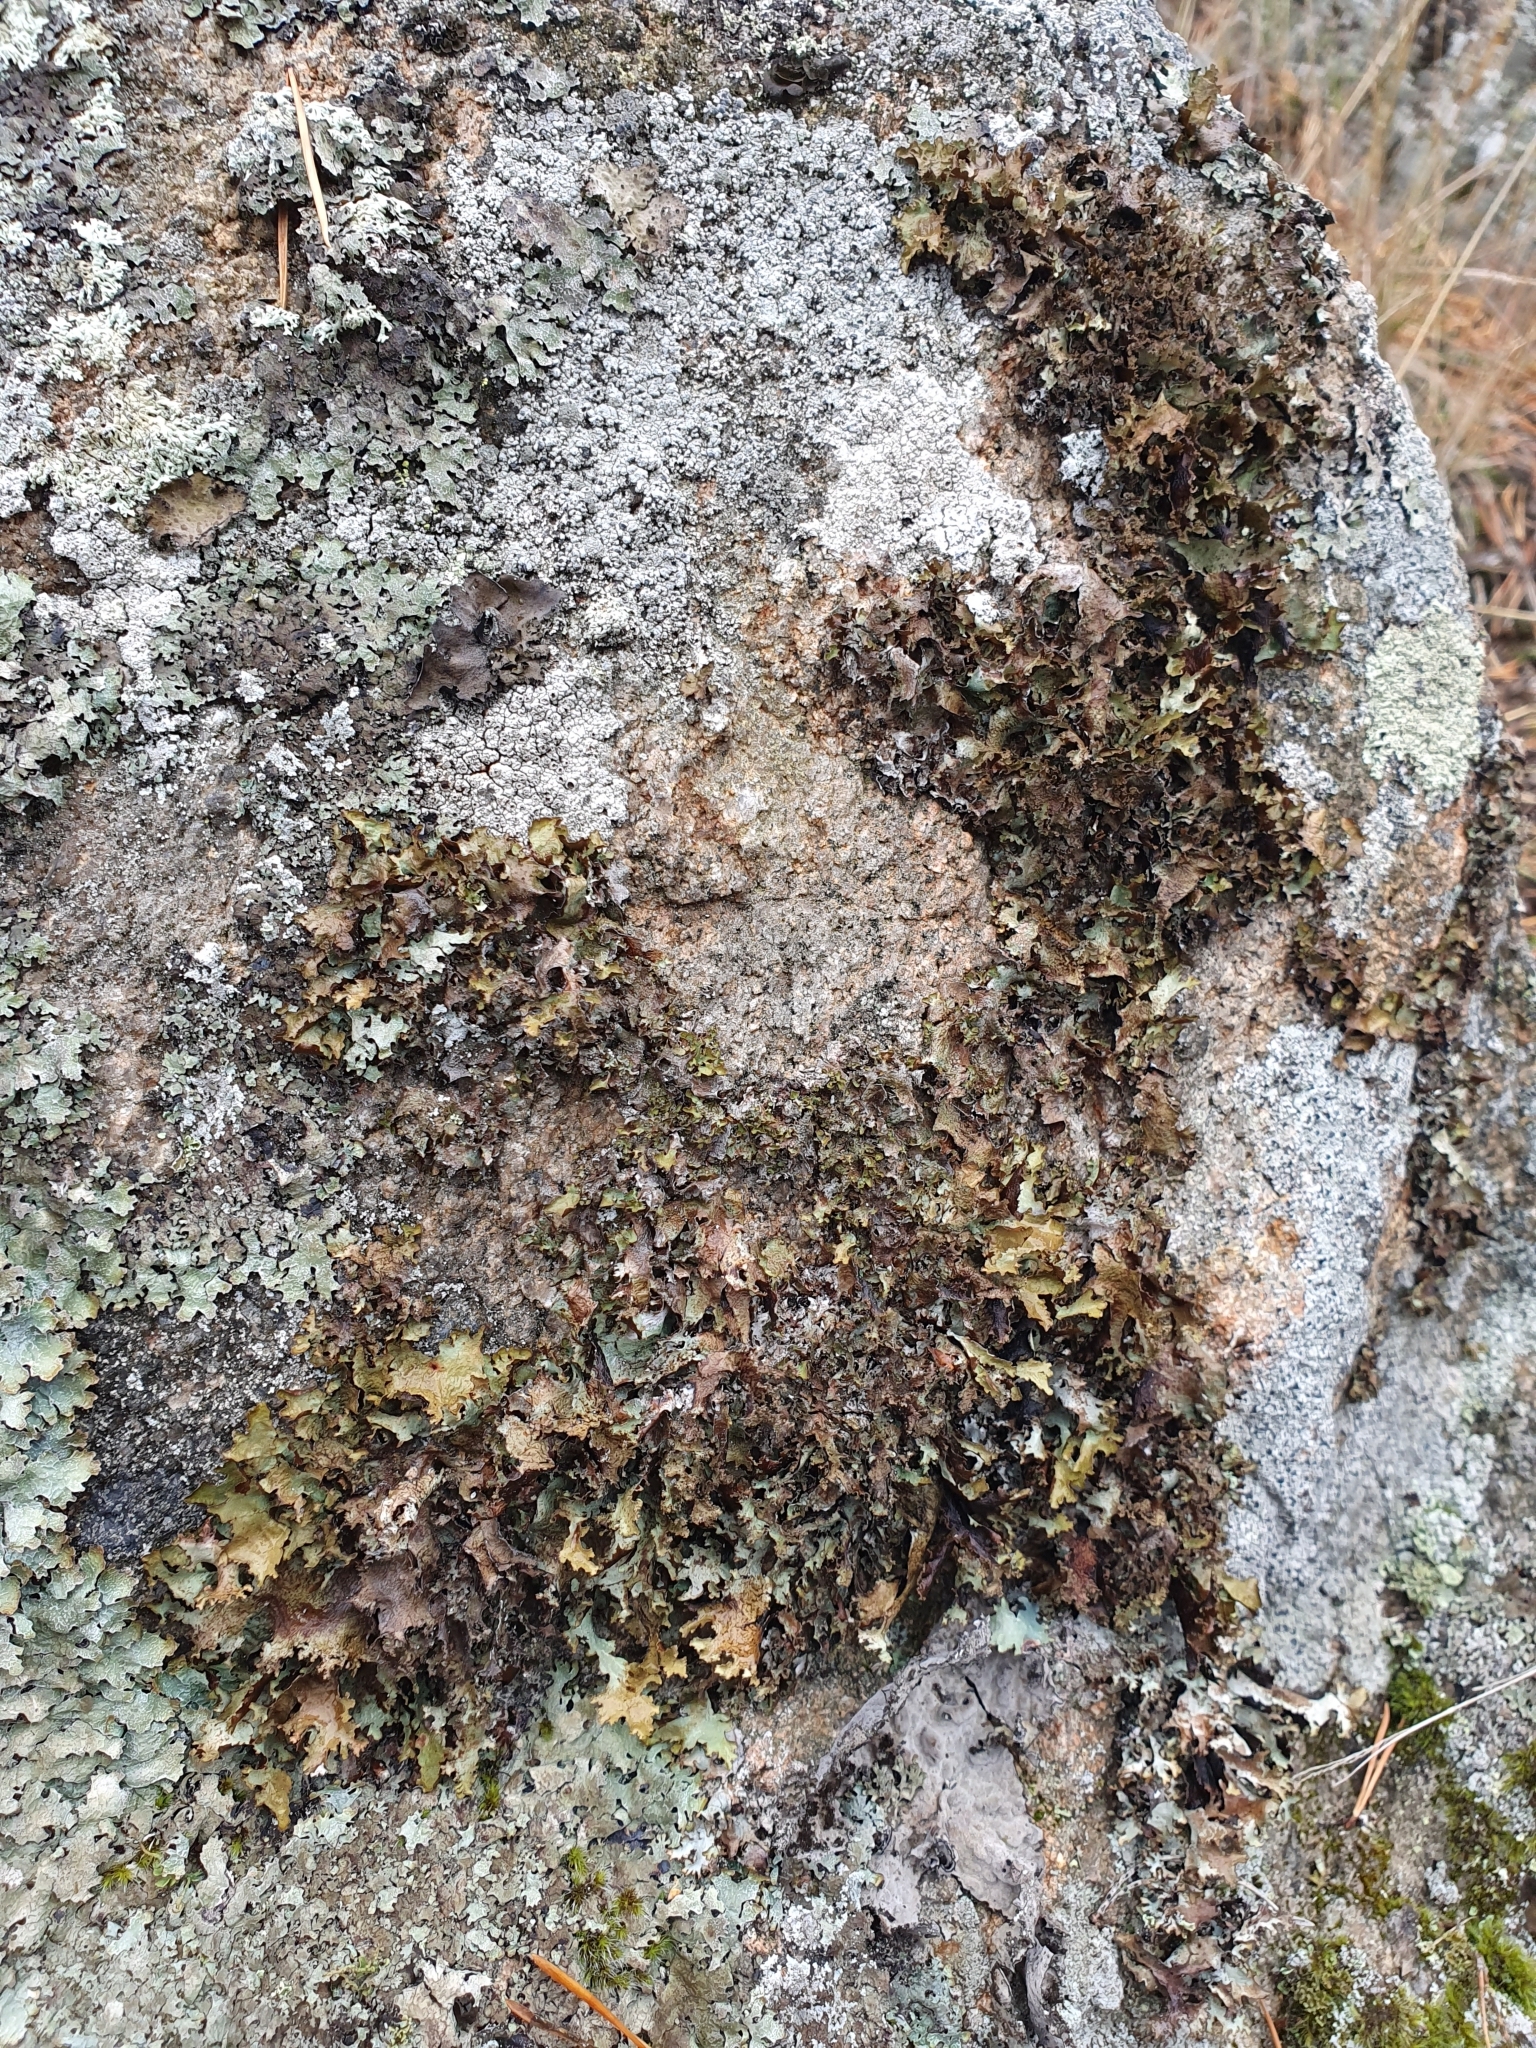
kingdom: Fungi
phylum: Ascomycota
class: Lecanoromycetes
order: Lecanorales
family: Parmeliaceae
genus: Platismatia
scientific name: Platismatia glauca
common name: Varied rag lichen
